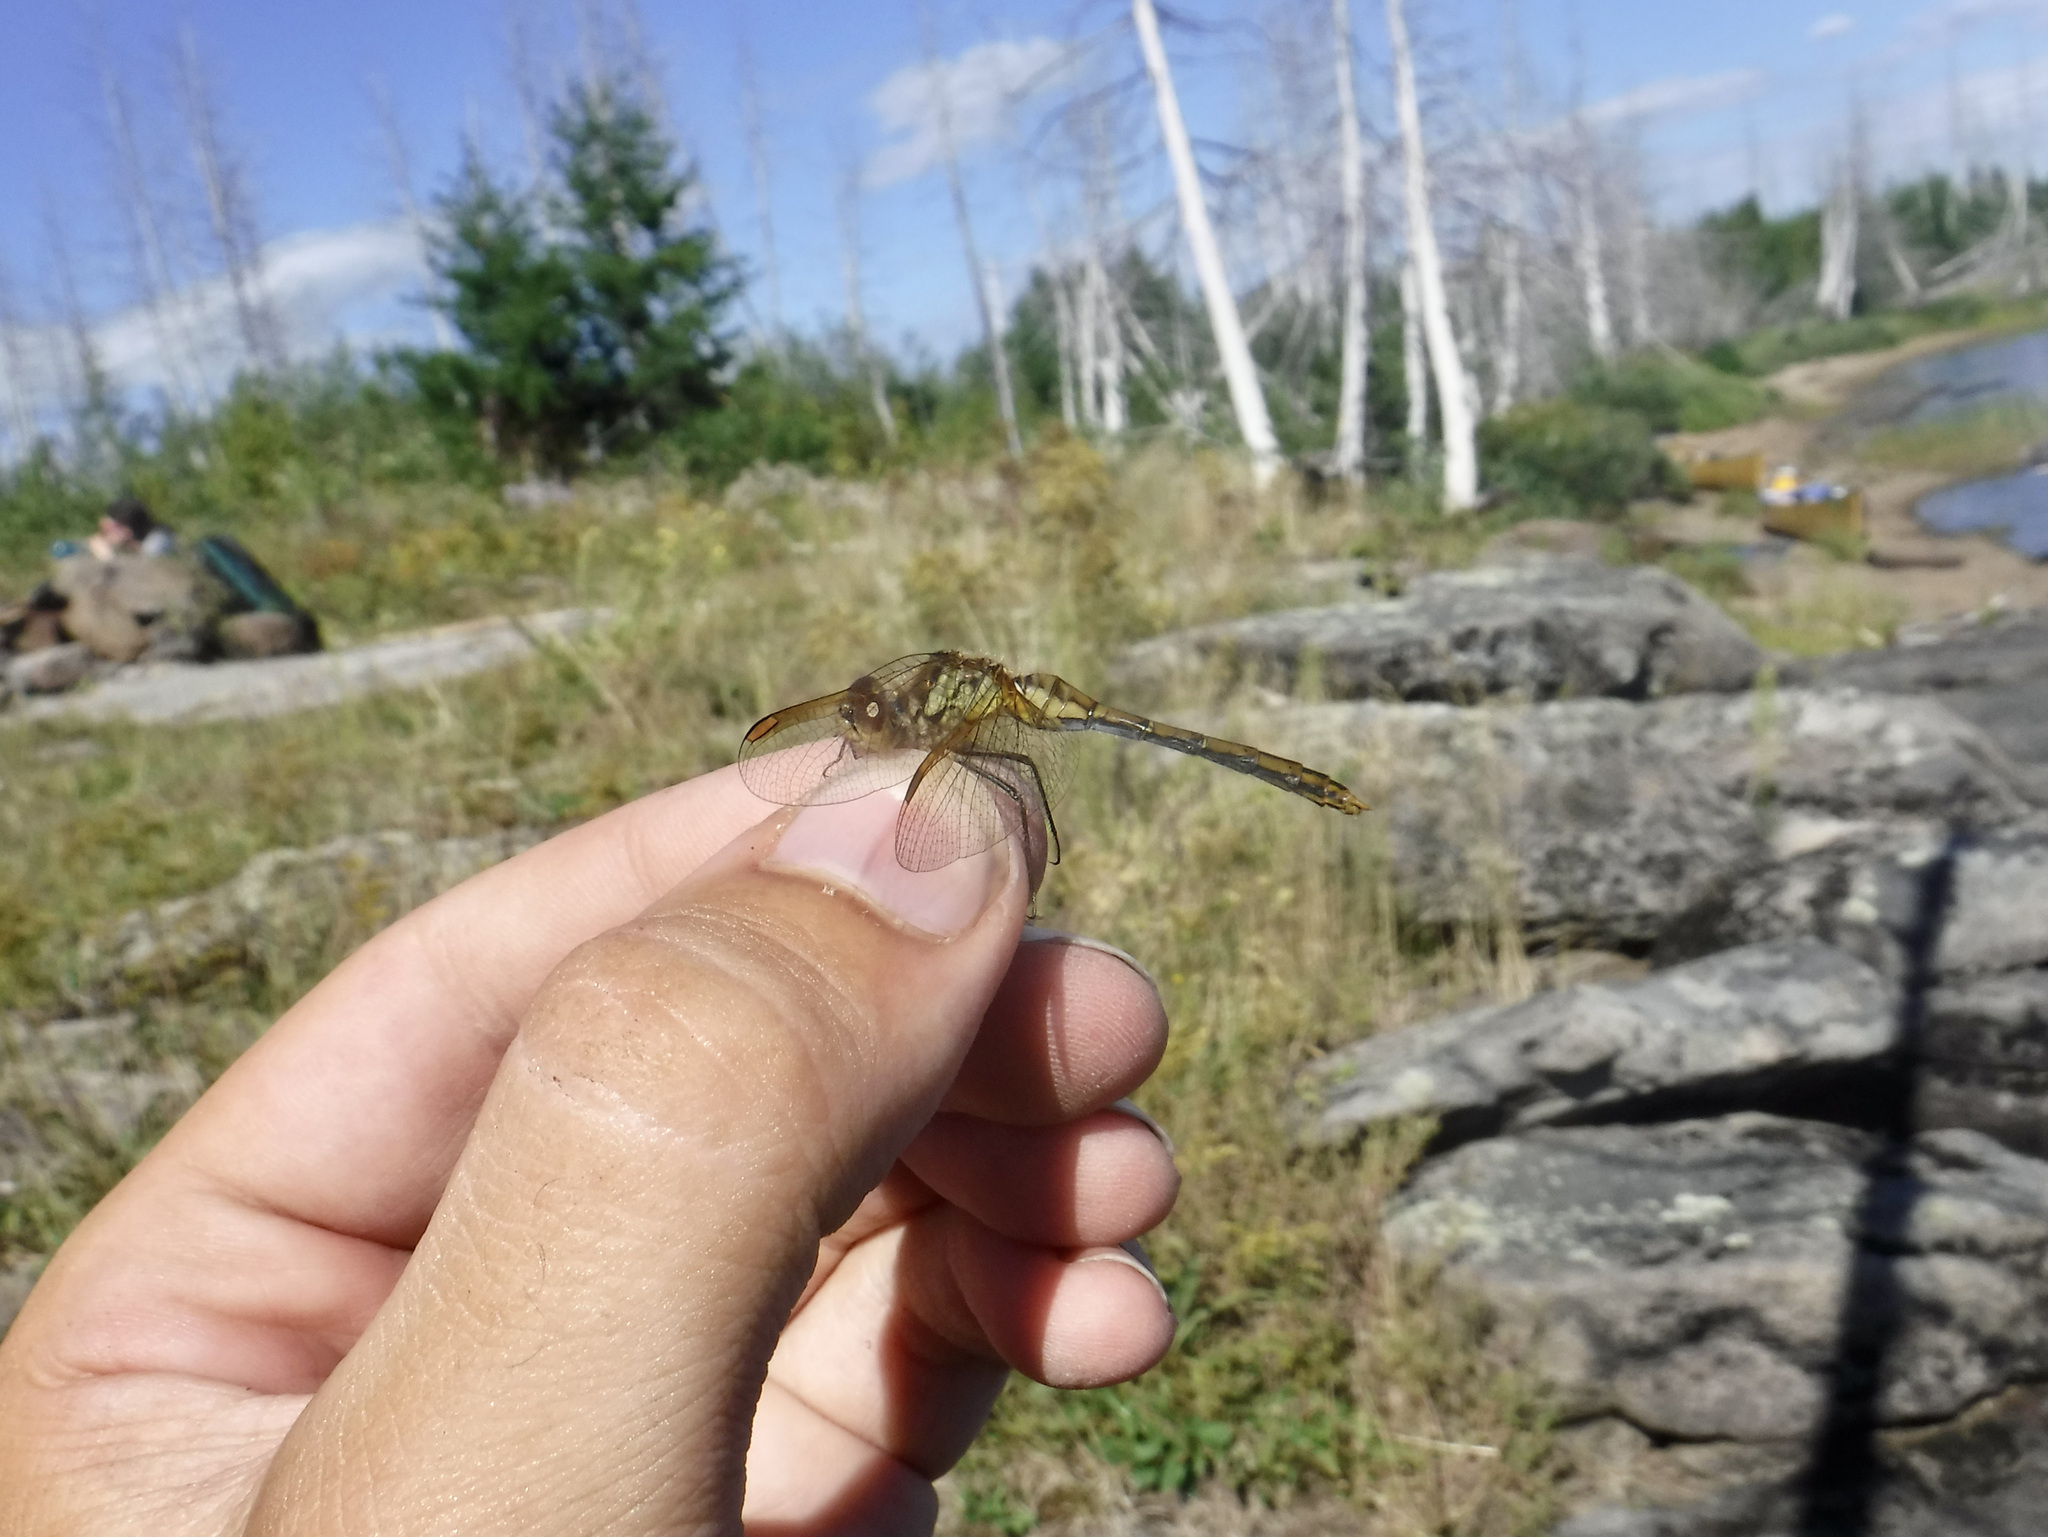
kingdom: Animalia
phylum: Arthropoda
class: Insecta
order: Odonata
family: Libellulidae
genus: Sympetrum
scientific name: Sympetrum costiferum
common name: Saffron-winged meadowhawk
